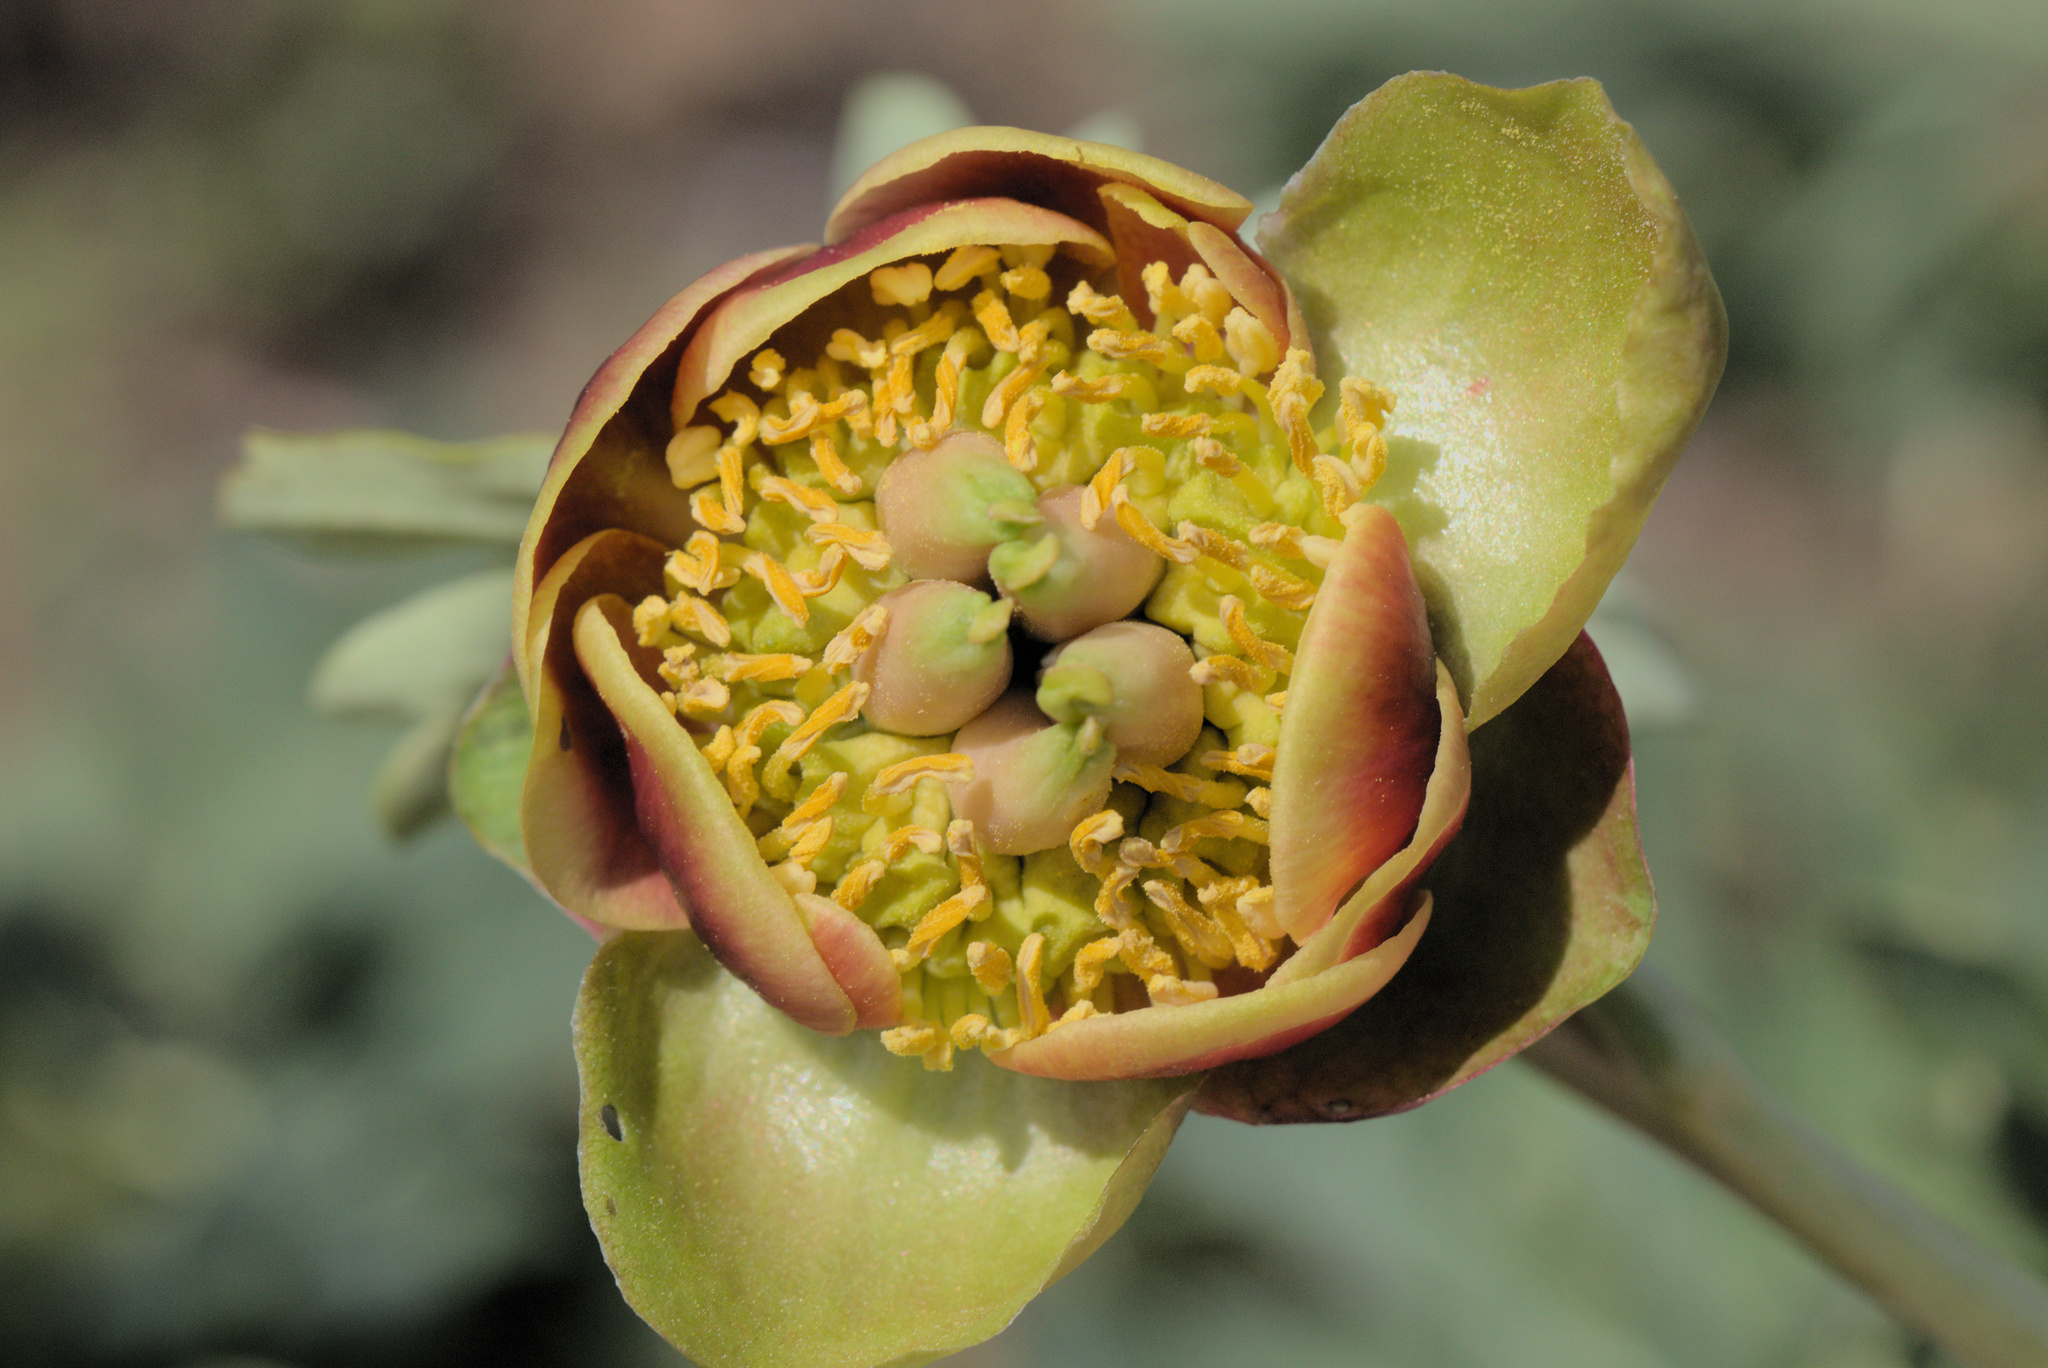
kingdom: Plantae
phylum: Tracheophyta
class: Magnoliopsida
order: Saxifragales
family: Paeoniaceae
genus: Paeonia
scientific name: Paeonia brownii
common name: Brown's peony
